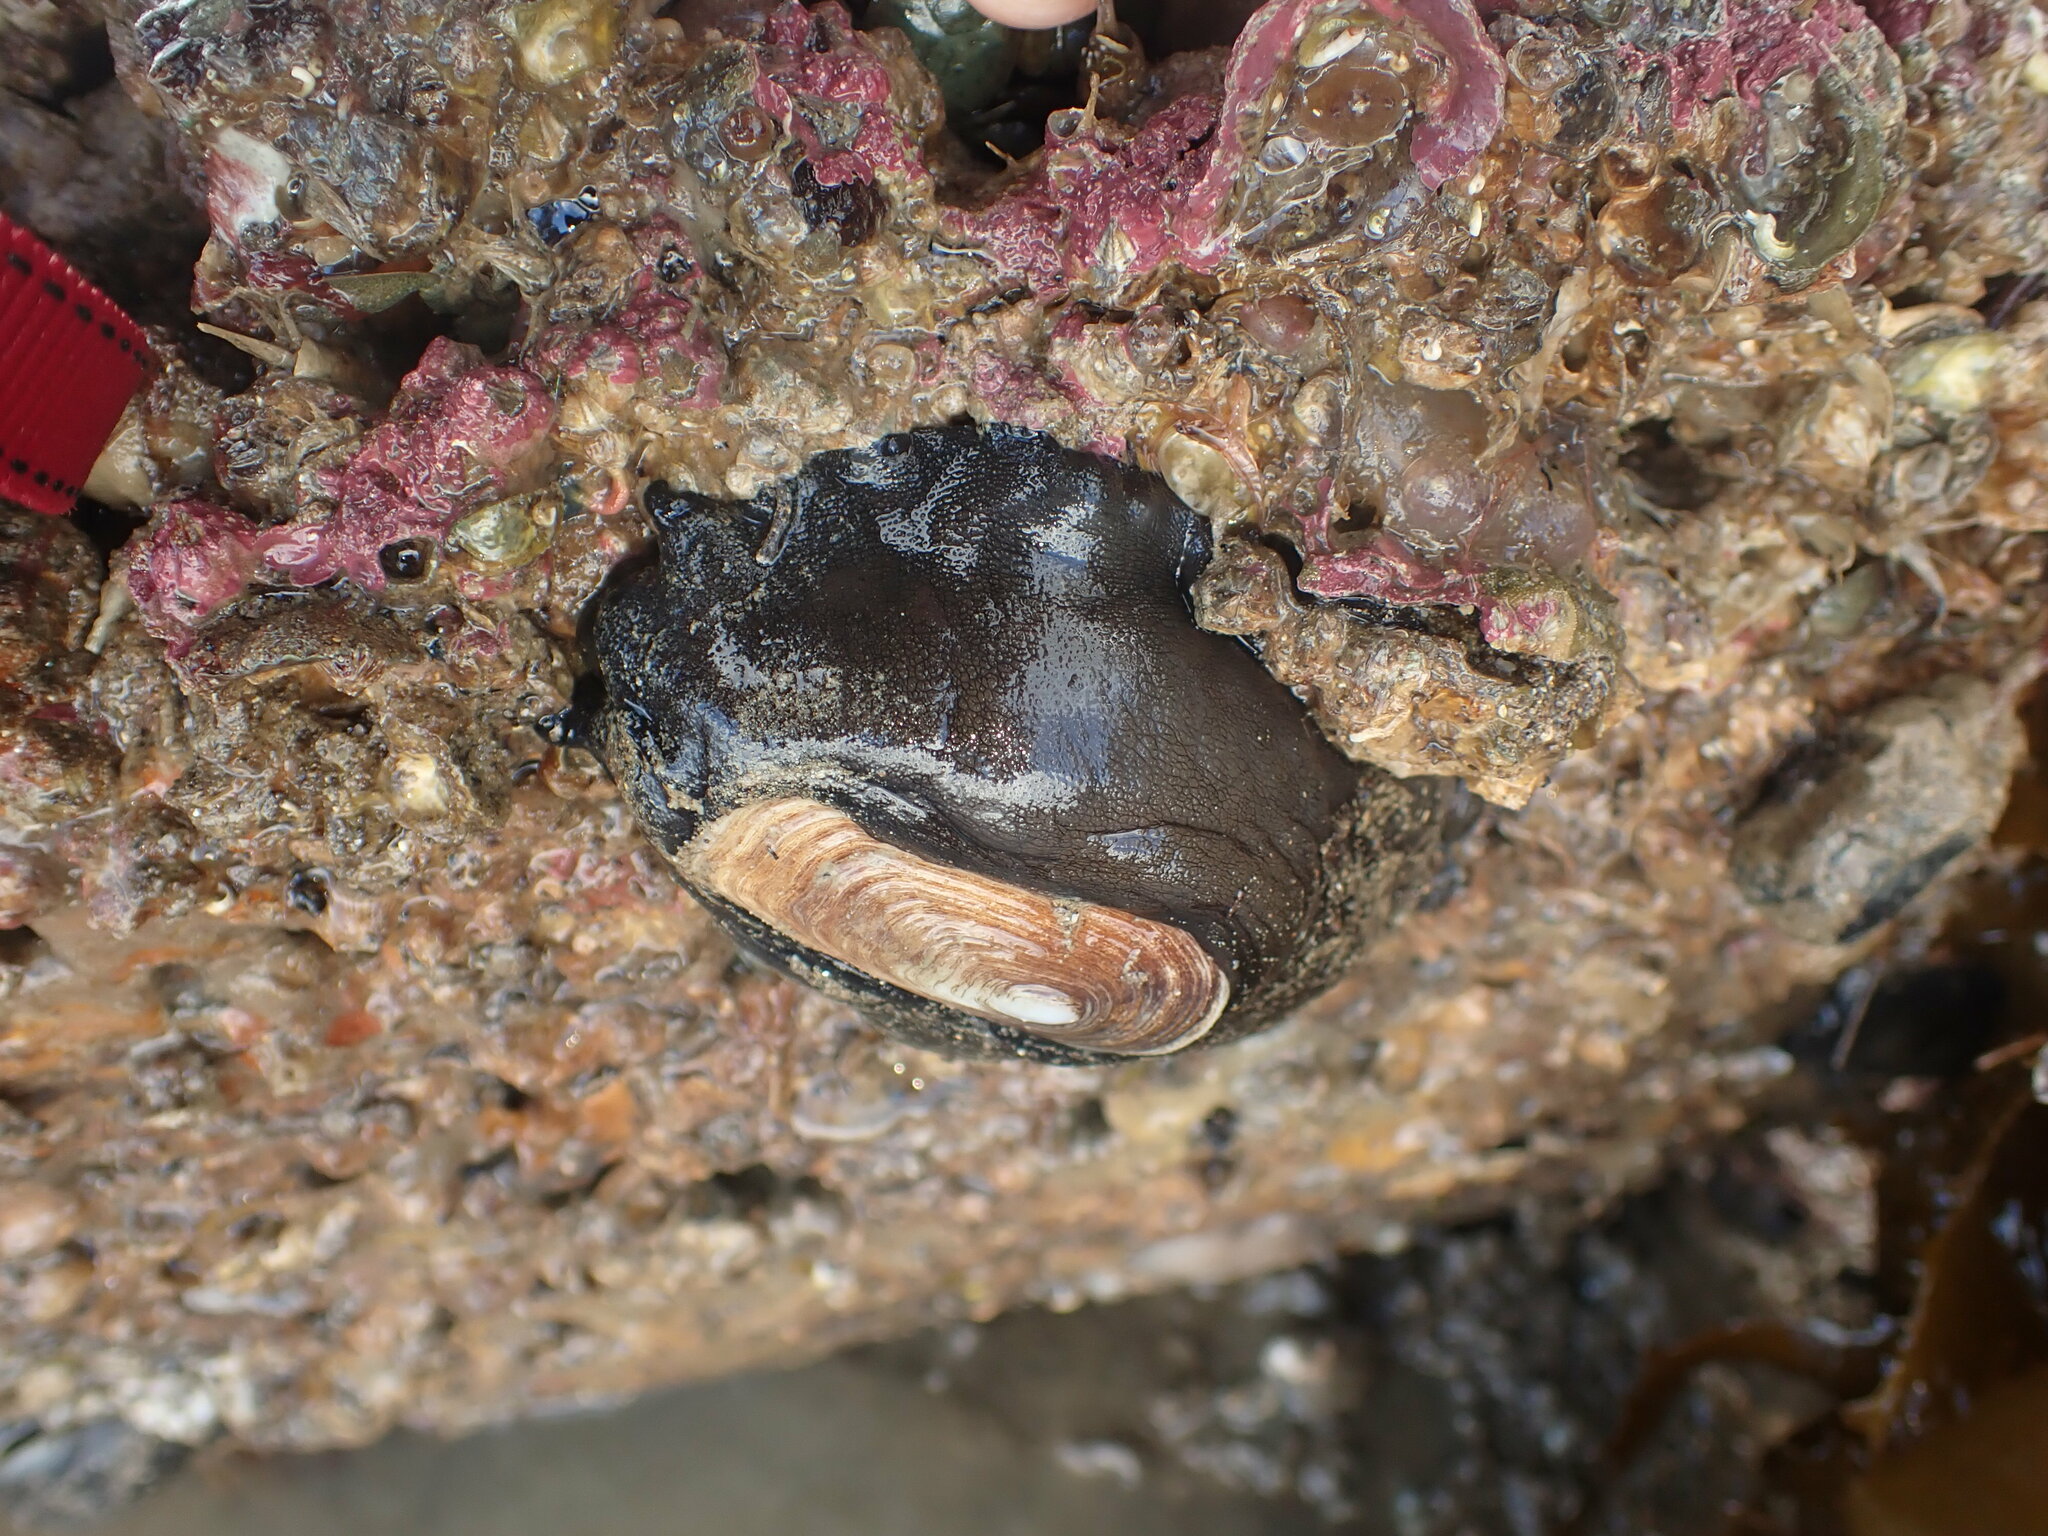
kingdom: Animalia
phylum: Mollusca
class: Gastropoda
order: Lepetellida
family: Fissurellidae
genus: Scutus
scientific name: Scutus breviculus
